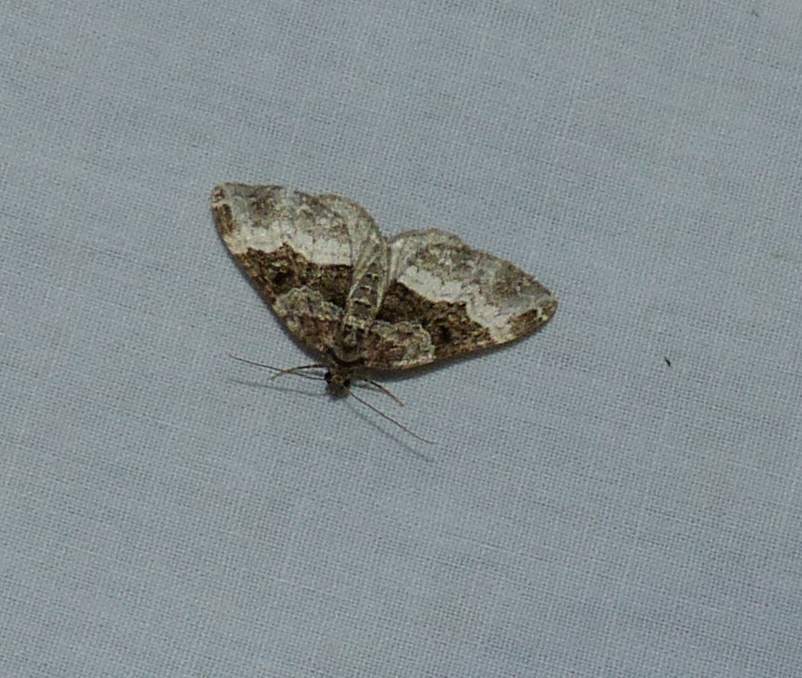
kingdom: Animalia
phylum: Arthropoda
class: Insecta
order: Lepidoptera
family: Geometridae
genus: Epirrhoe
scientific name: Epirrhoe alternata
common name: Common carpet
